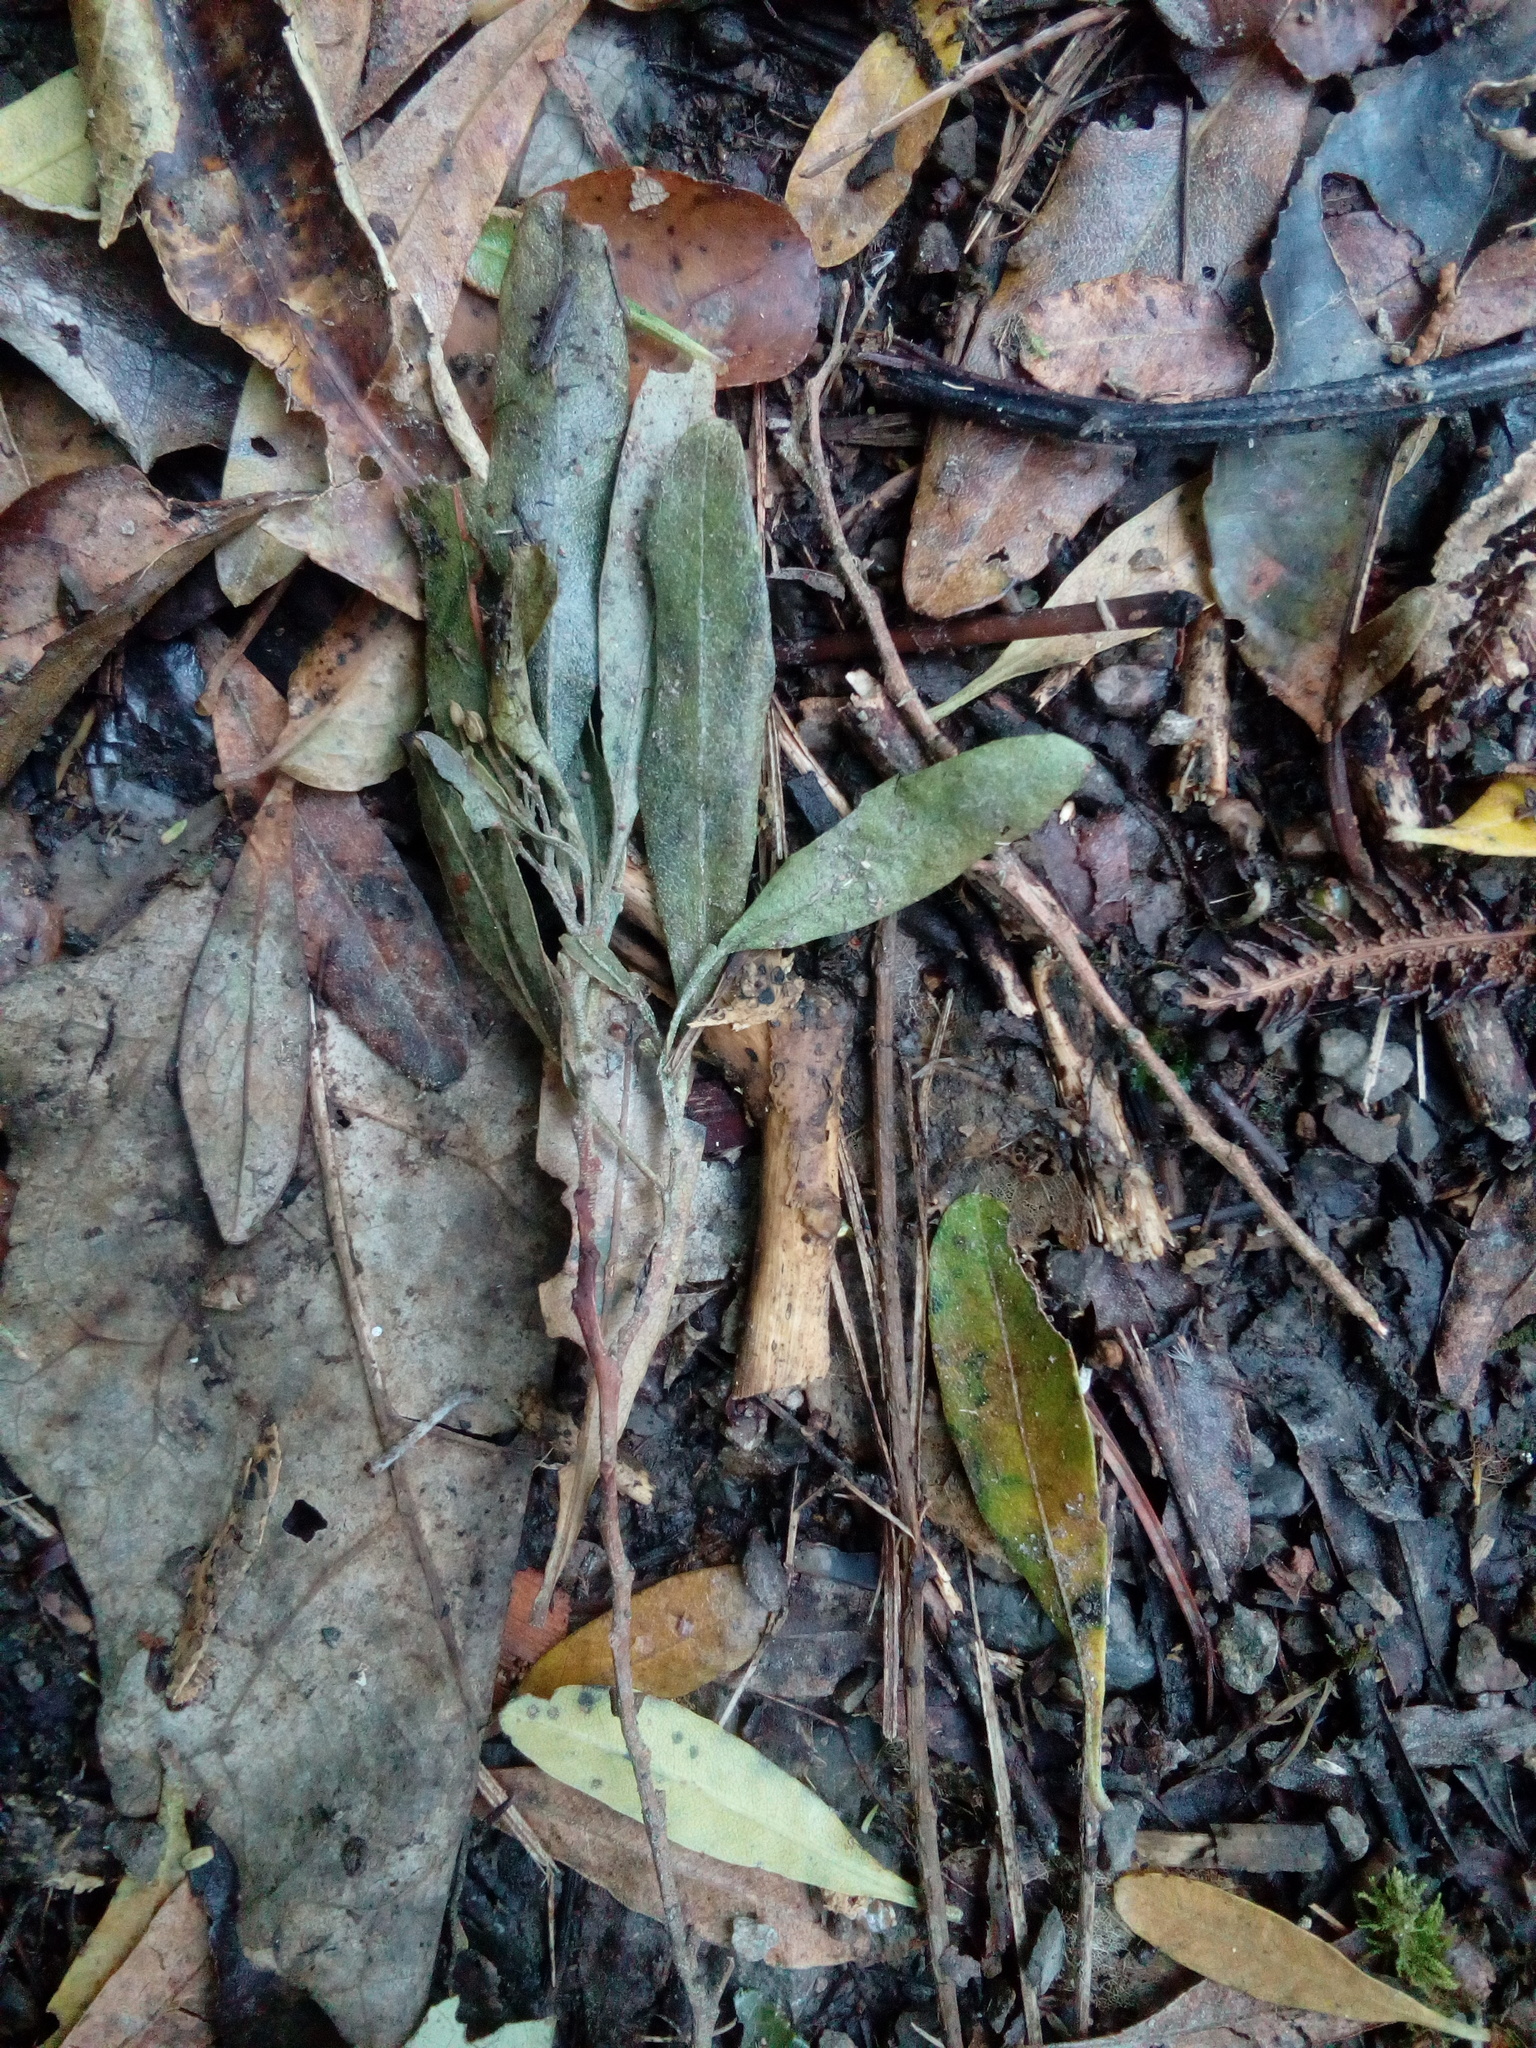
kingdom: Plantae
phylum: Tracheophyta
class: Magnoliopsida
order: Sapindales
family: Sapindaceae
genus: Dodonaea
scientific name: Dodonaea viscosa
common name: Hopbush
